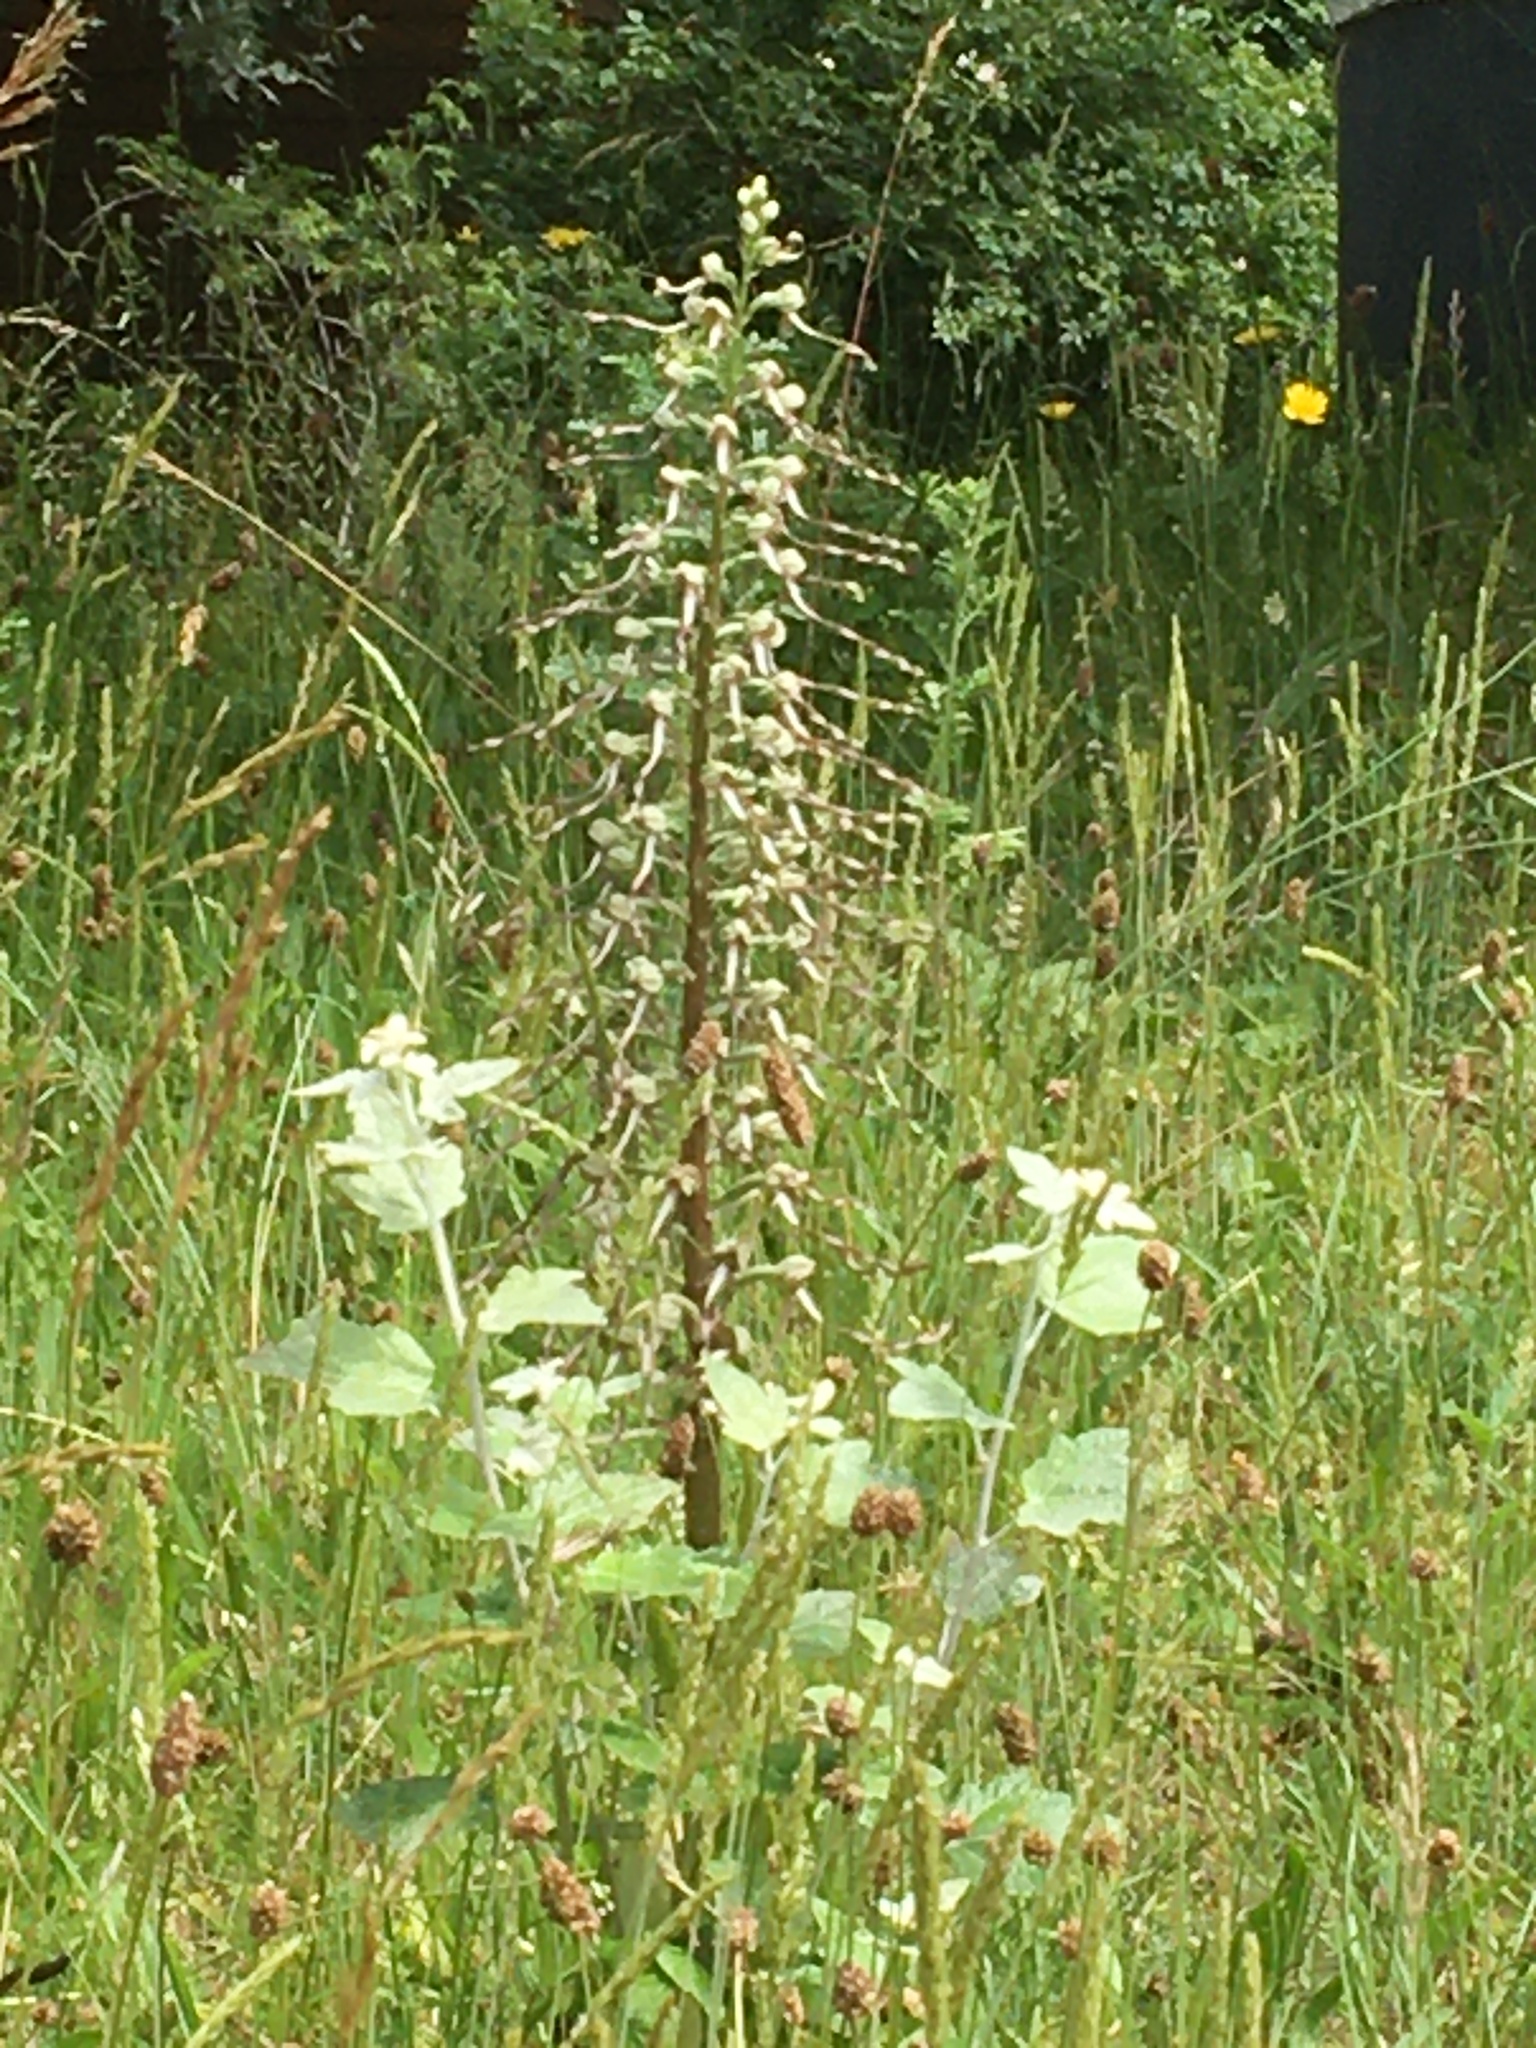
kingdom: Plantae
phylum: Tracheophyta
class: Liliopsida
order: Asparagales
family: Orchidaceae
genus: Himantoglossum
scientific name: Himantoglossum hircinum
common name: Lizard orchid
